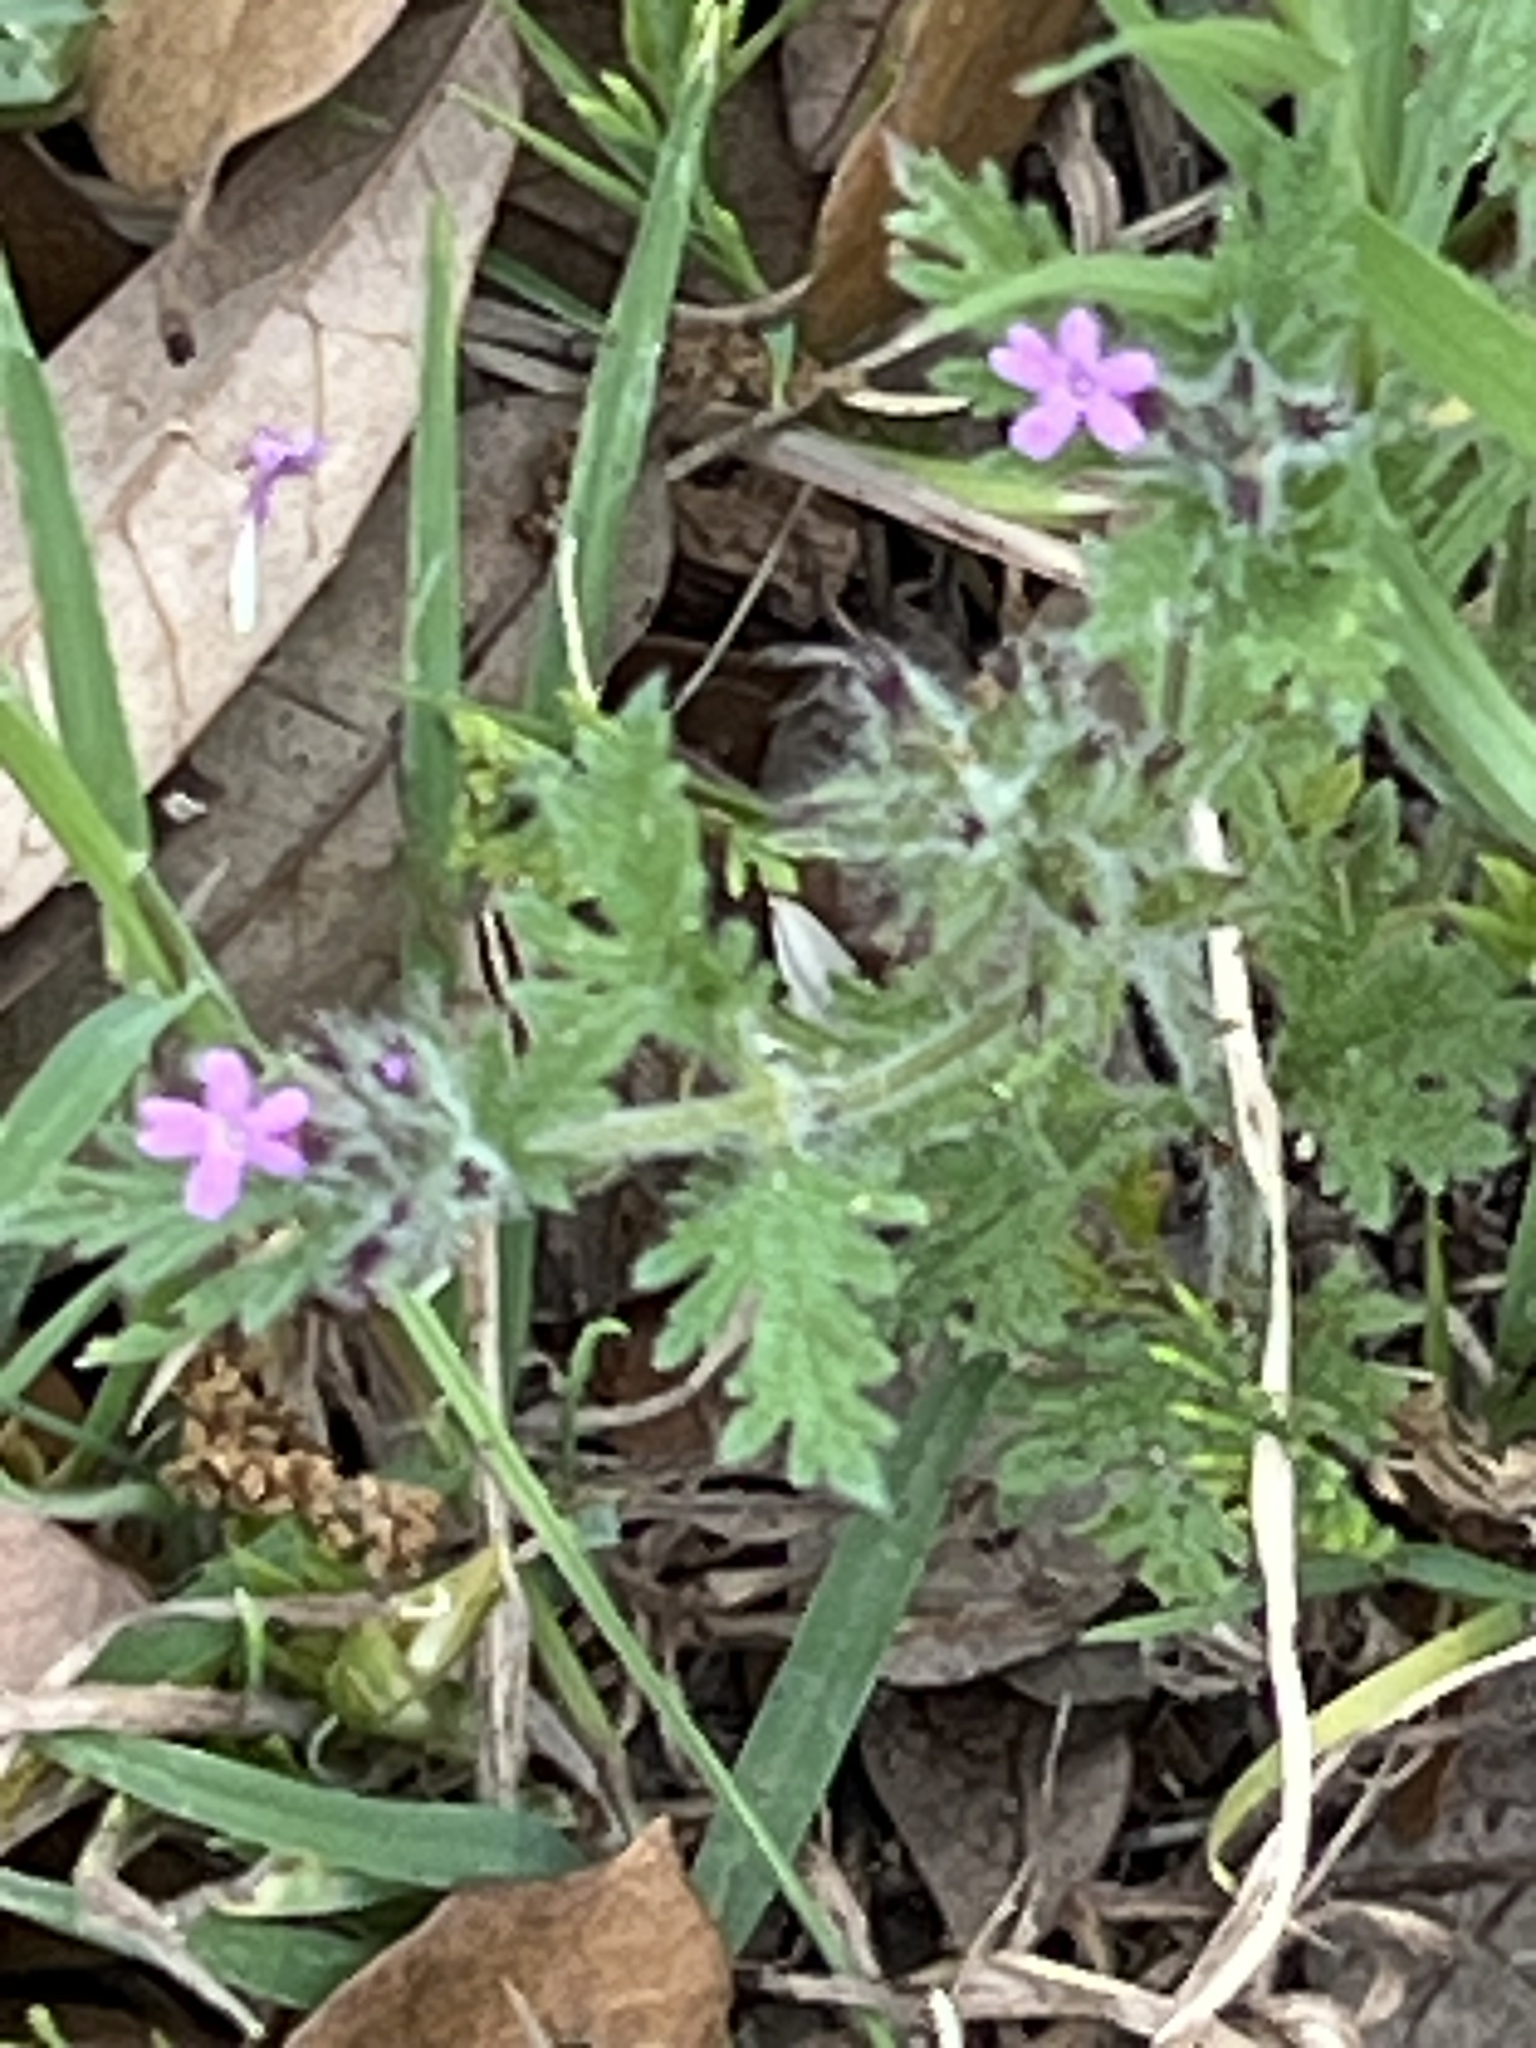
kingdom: Plantae
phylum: Tracheophyta
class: Magnoliopsida
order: Lamiales
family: Verbenaceae
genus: Verbena
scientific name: Verbena pumila
